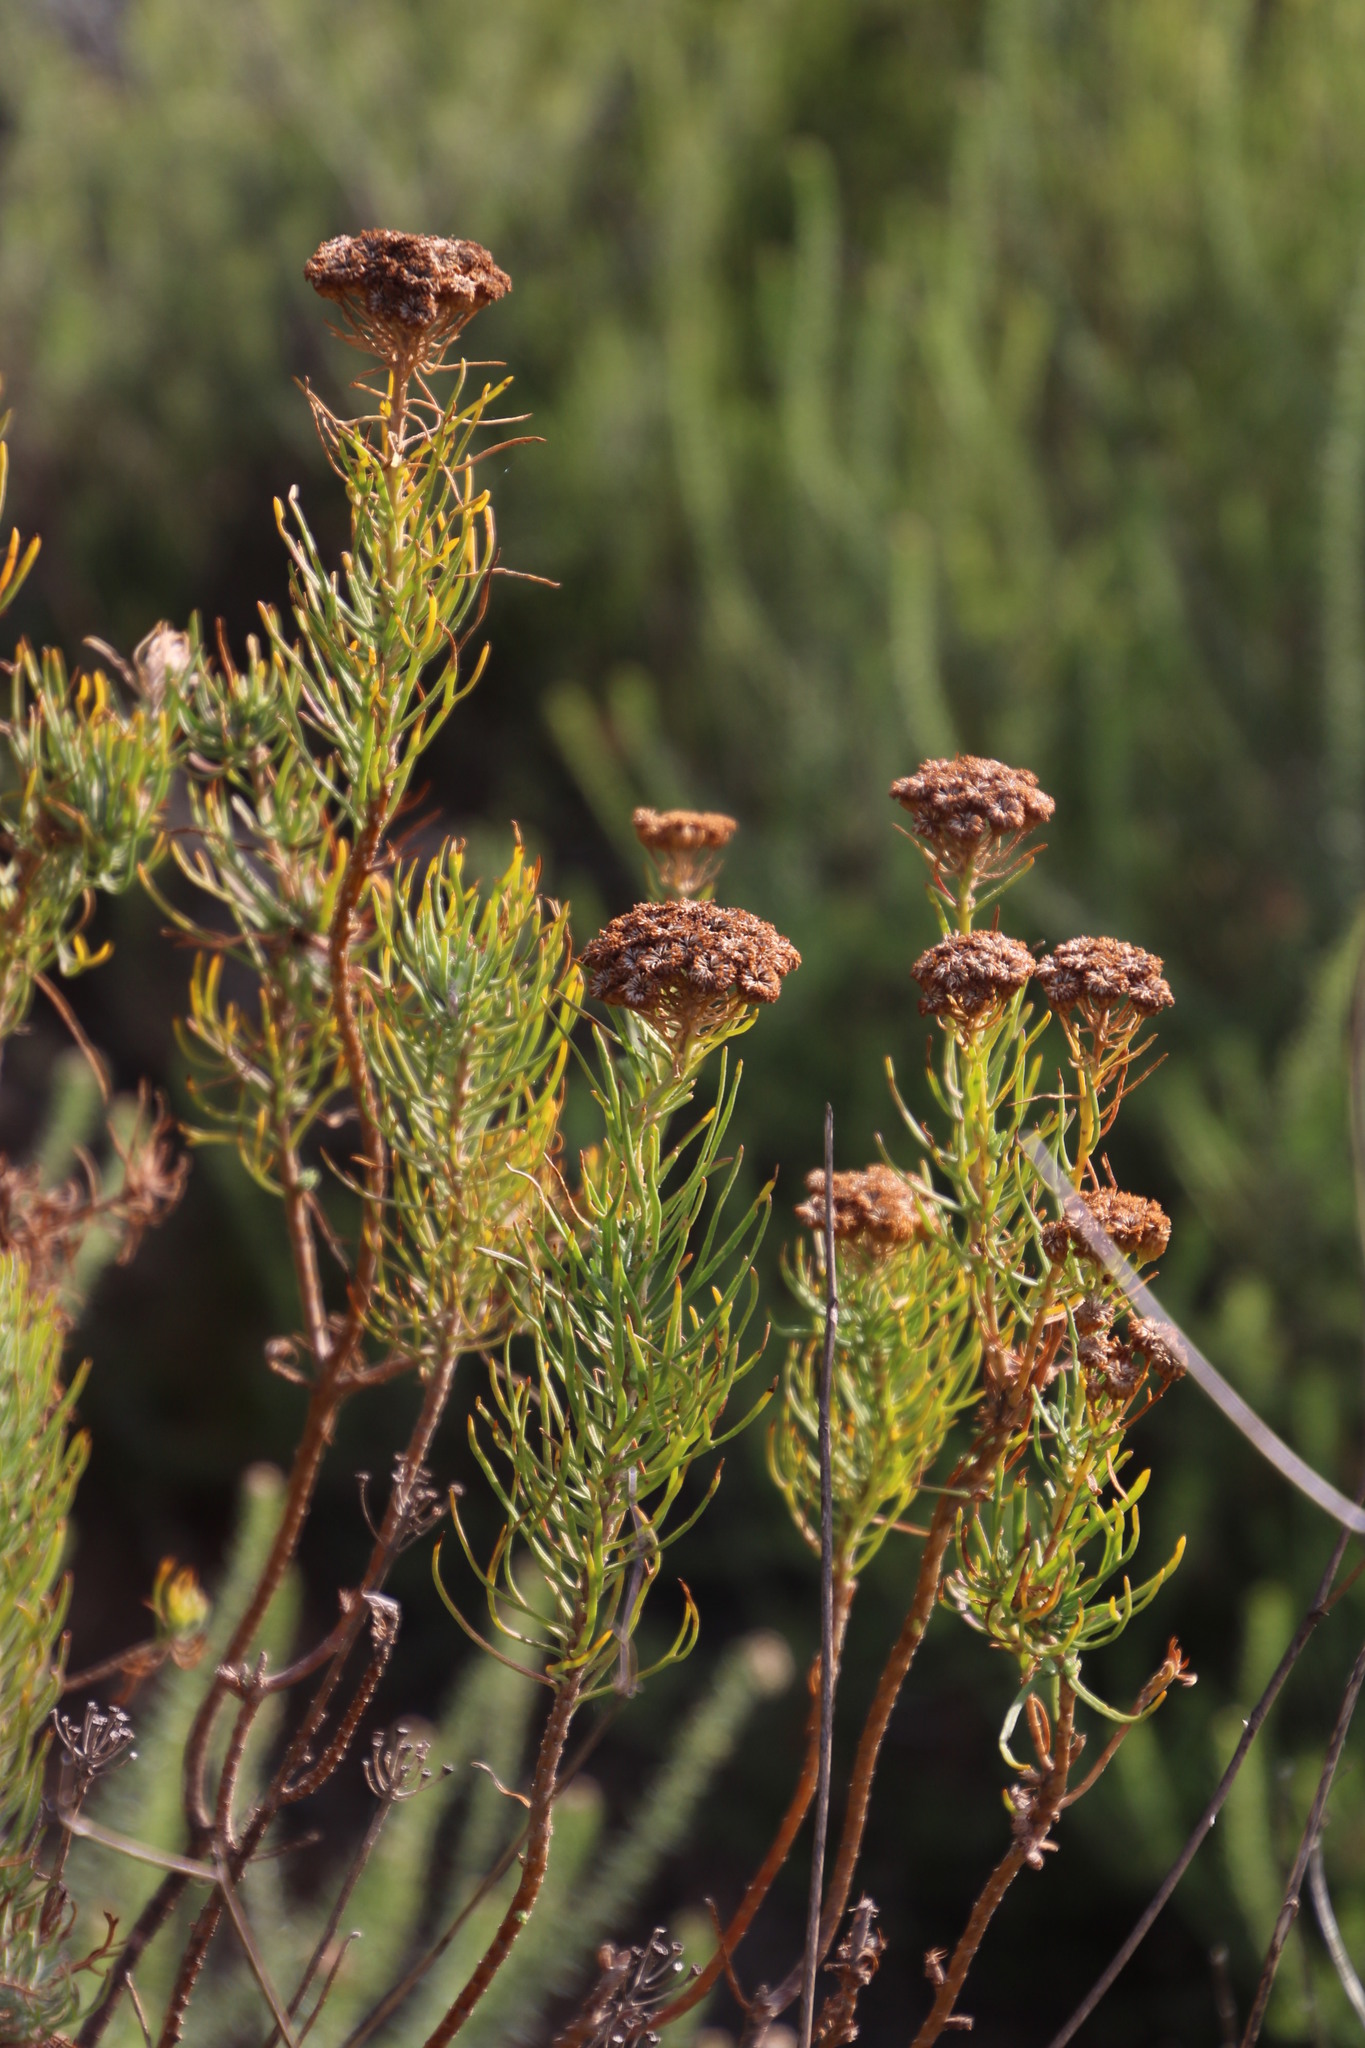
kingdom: Plantae
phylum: Tracheophyta
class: Magnoliopsida
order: Asterales
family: Asteraceae
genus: Athanasia
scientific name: Athanasia crithmifolia
